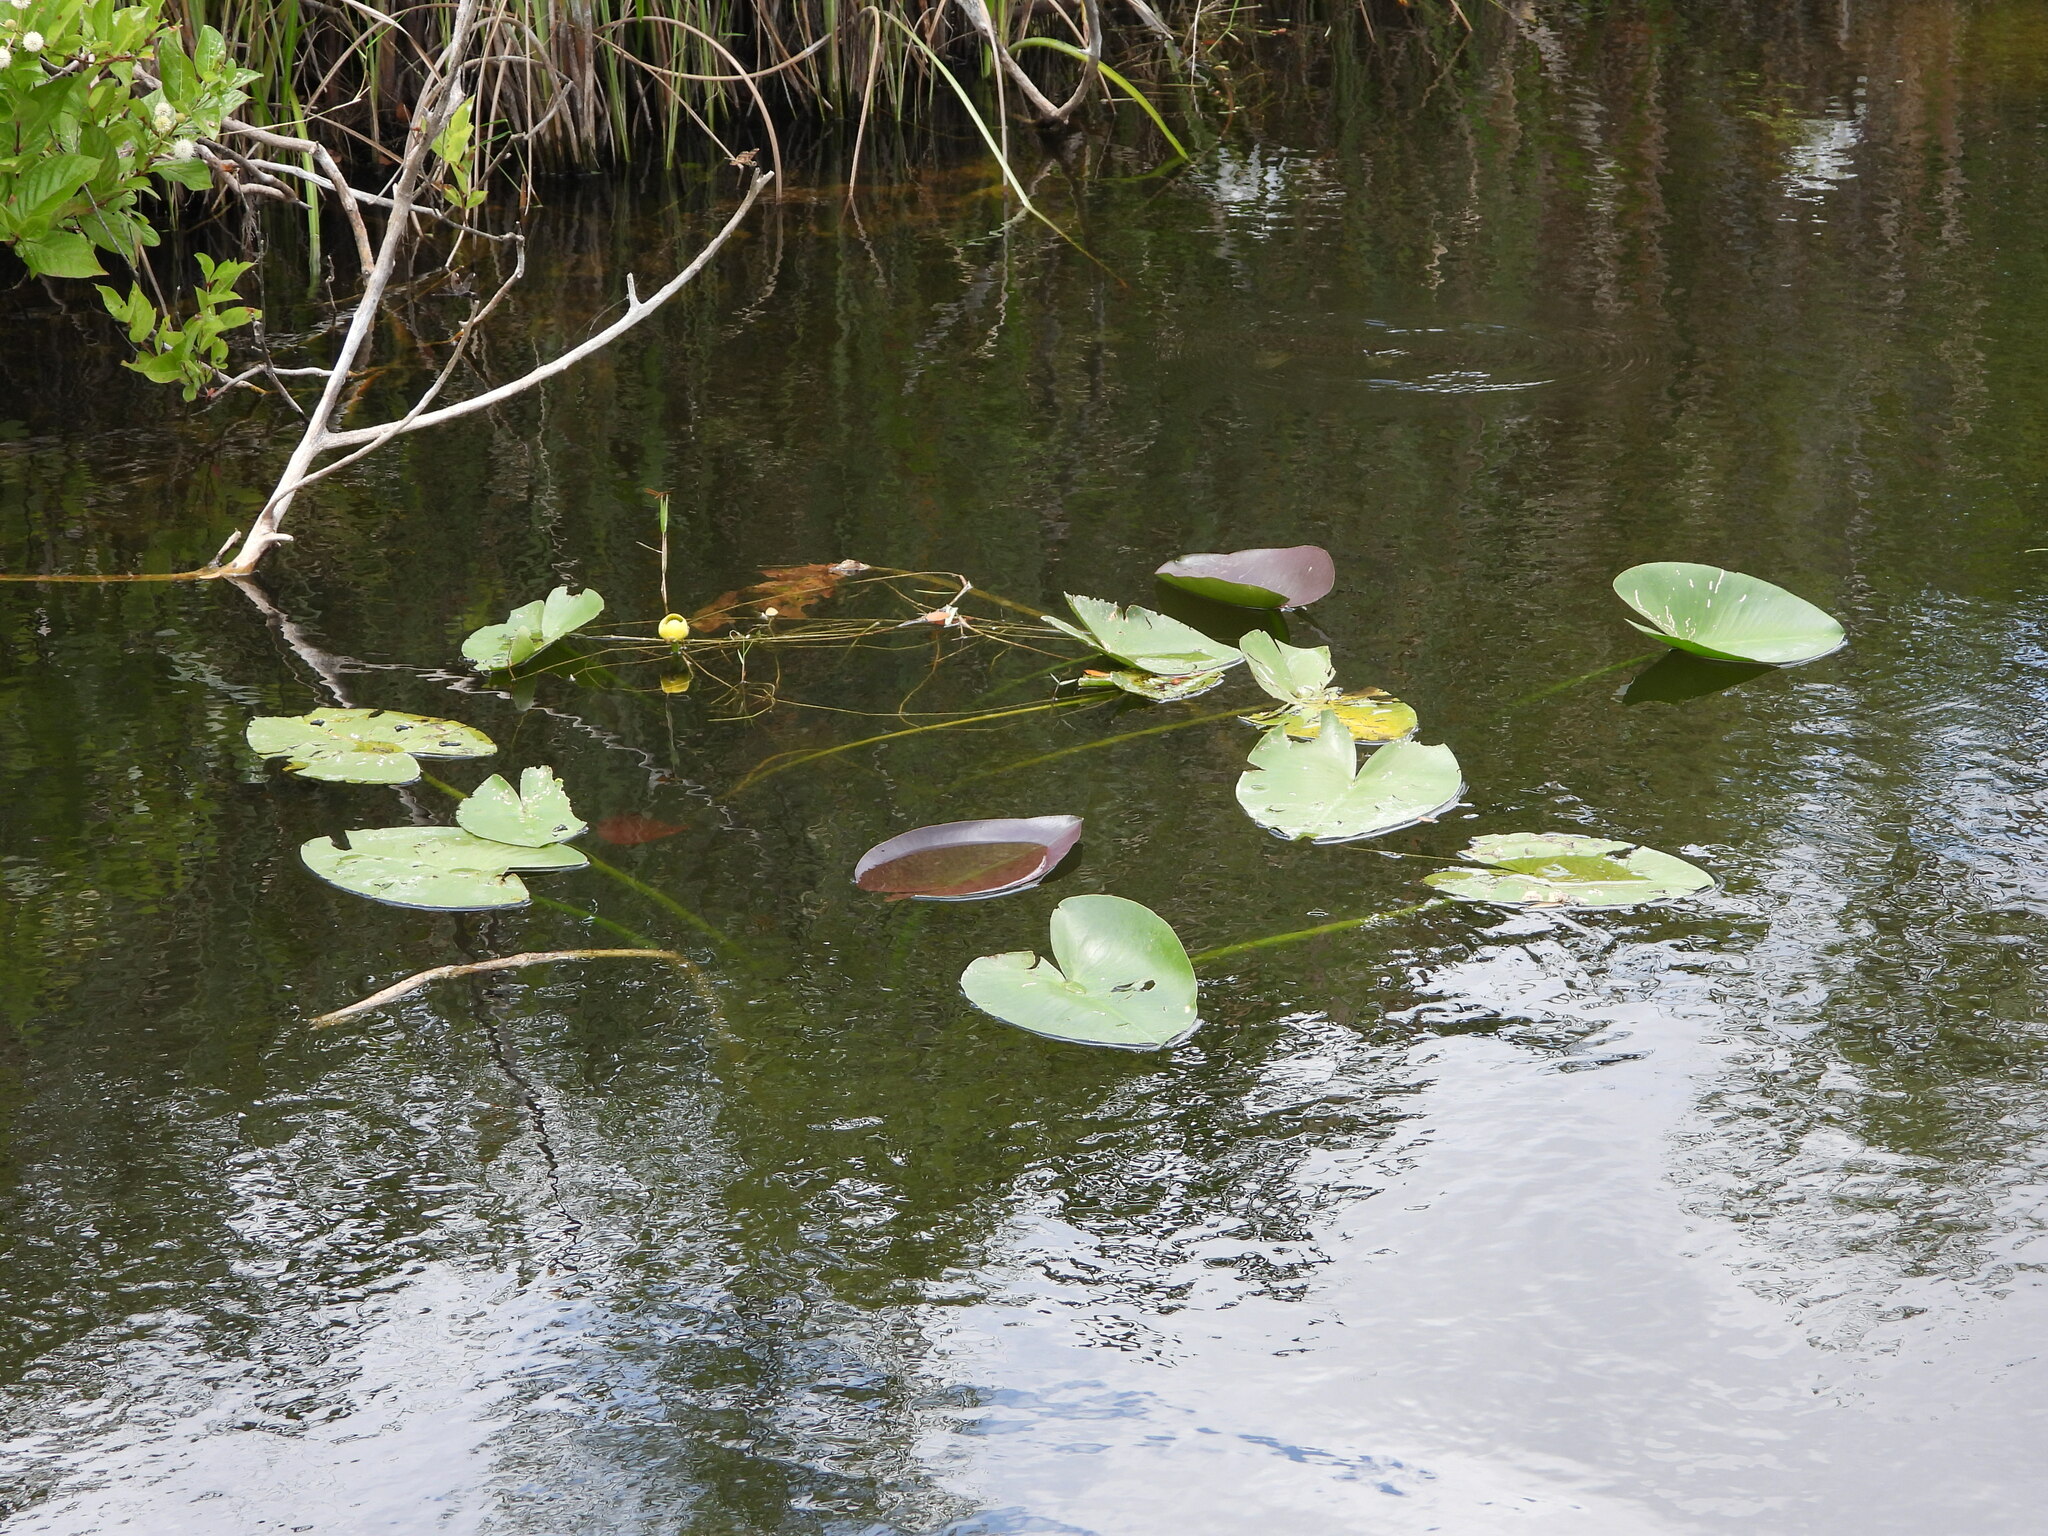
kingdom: Plantae
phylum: Tracheophyta
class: Magnoliopsida
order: Nymphaeales
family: Nymphaeaceae
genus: Nuphar
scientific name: Nuphar advena
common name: Spatter-dock
